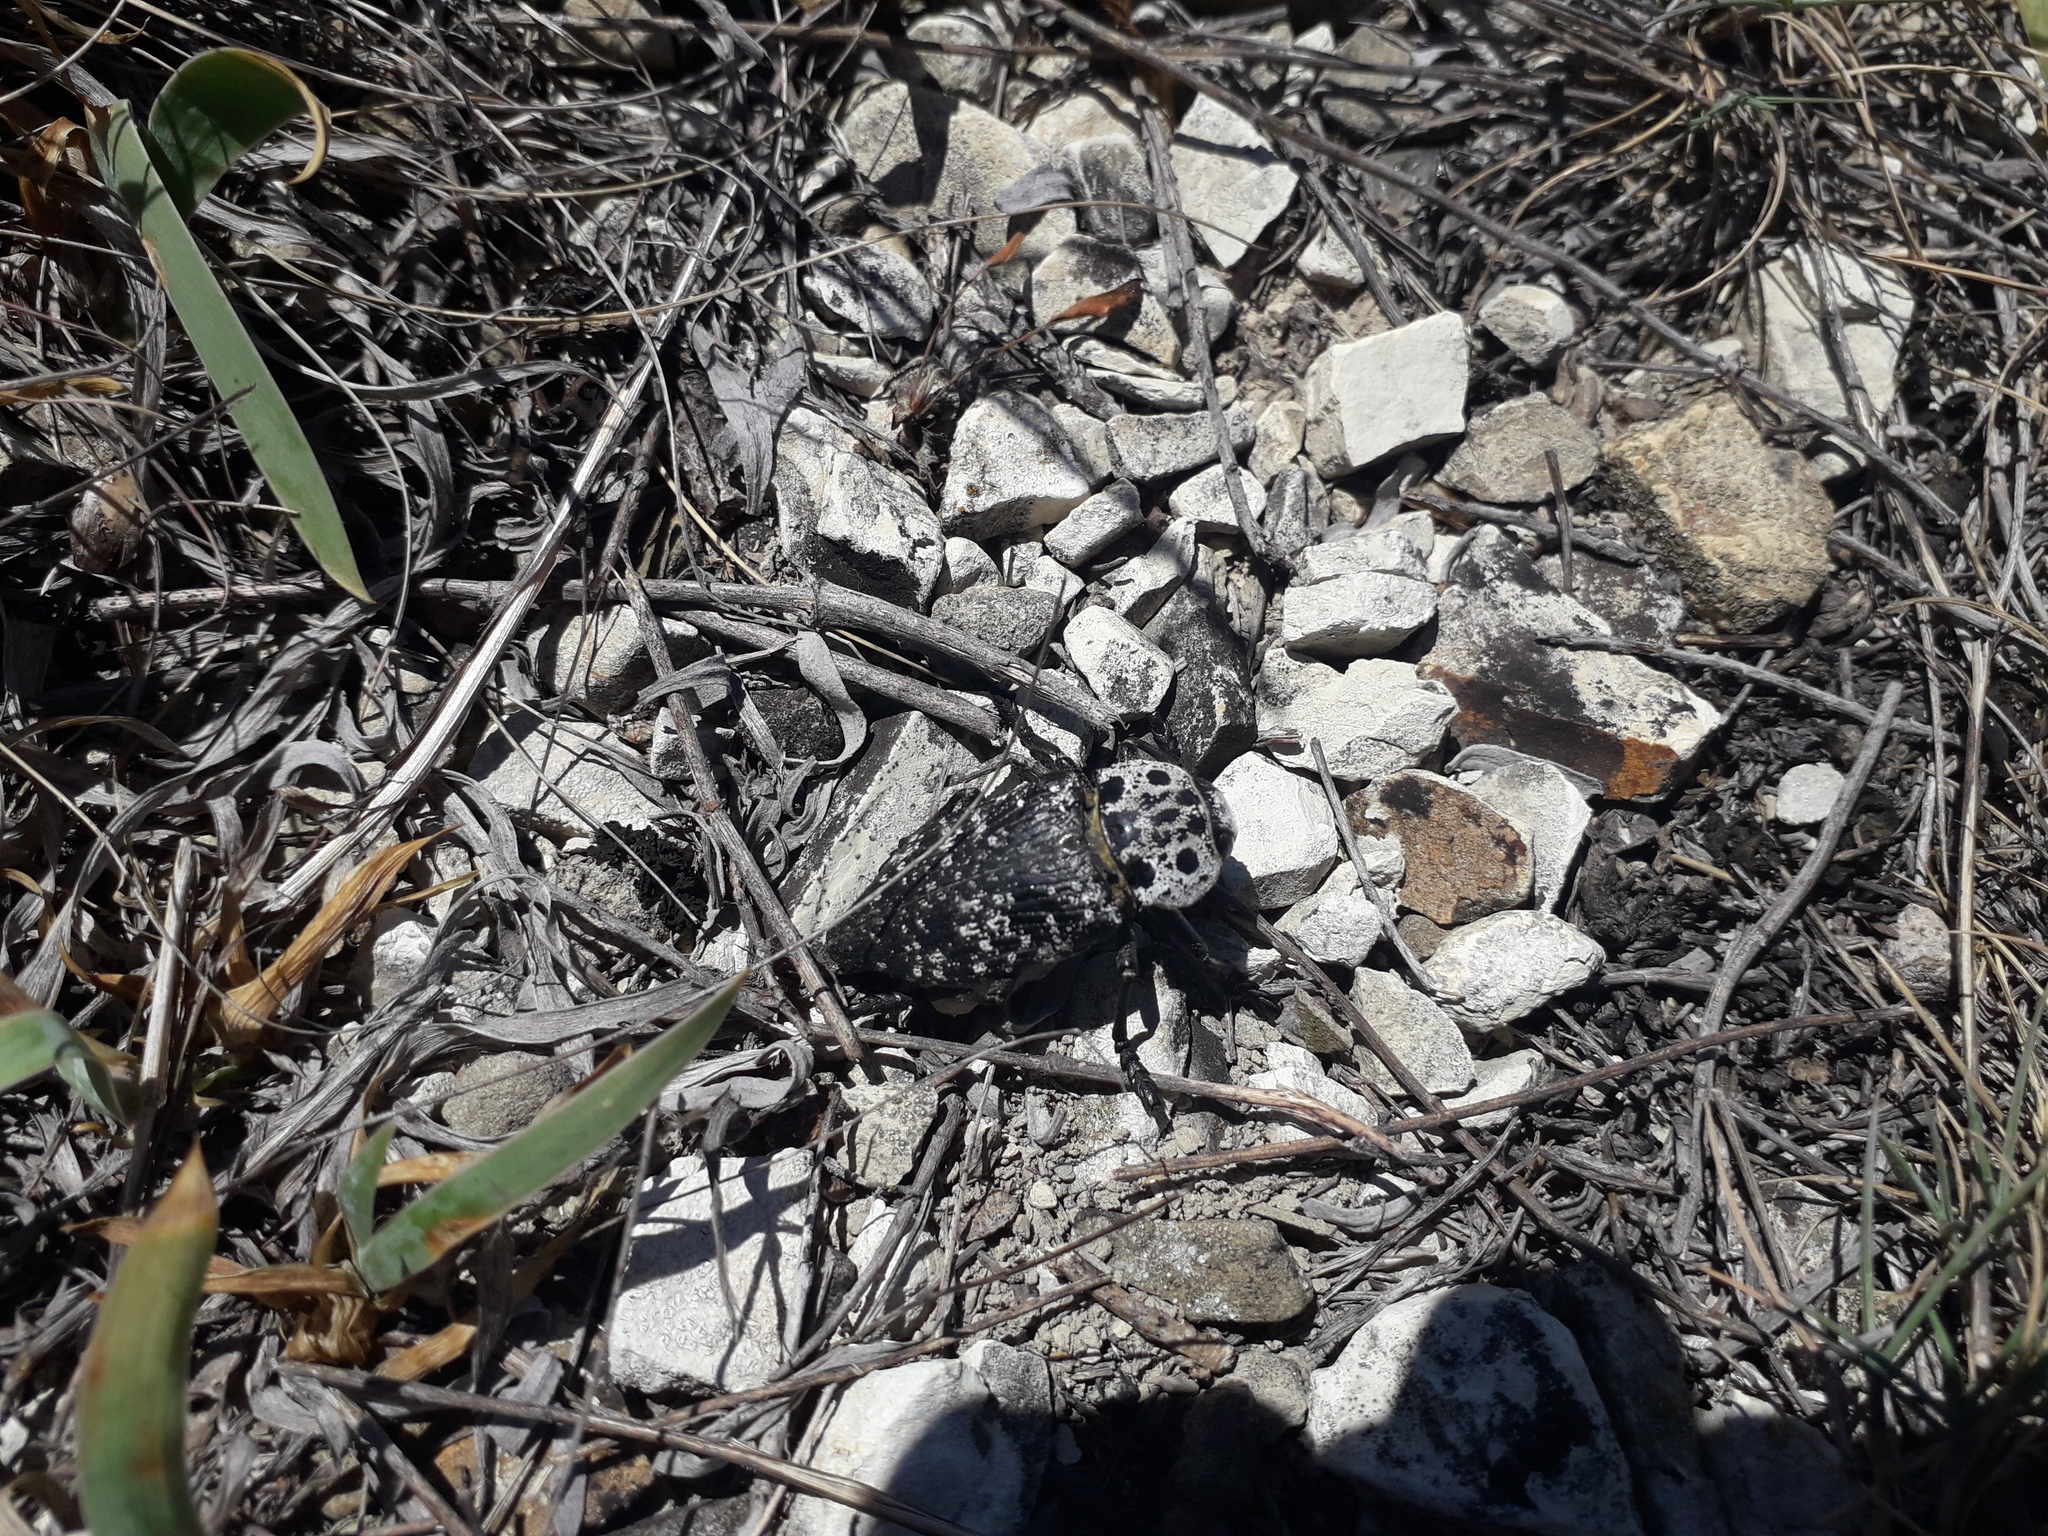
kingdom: Animalia
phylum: Arthropoda
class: Insecta
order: Coleoptera
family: Buprestidae
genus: Capnodis
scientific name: Capnodis cariosa
